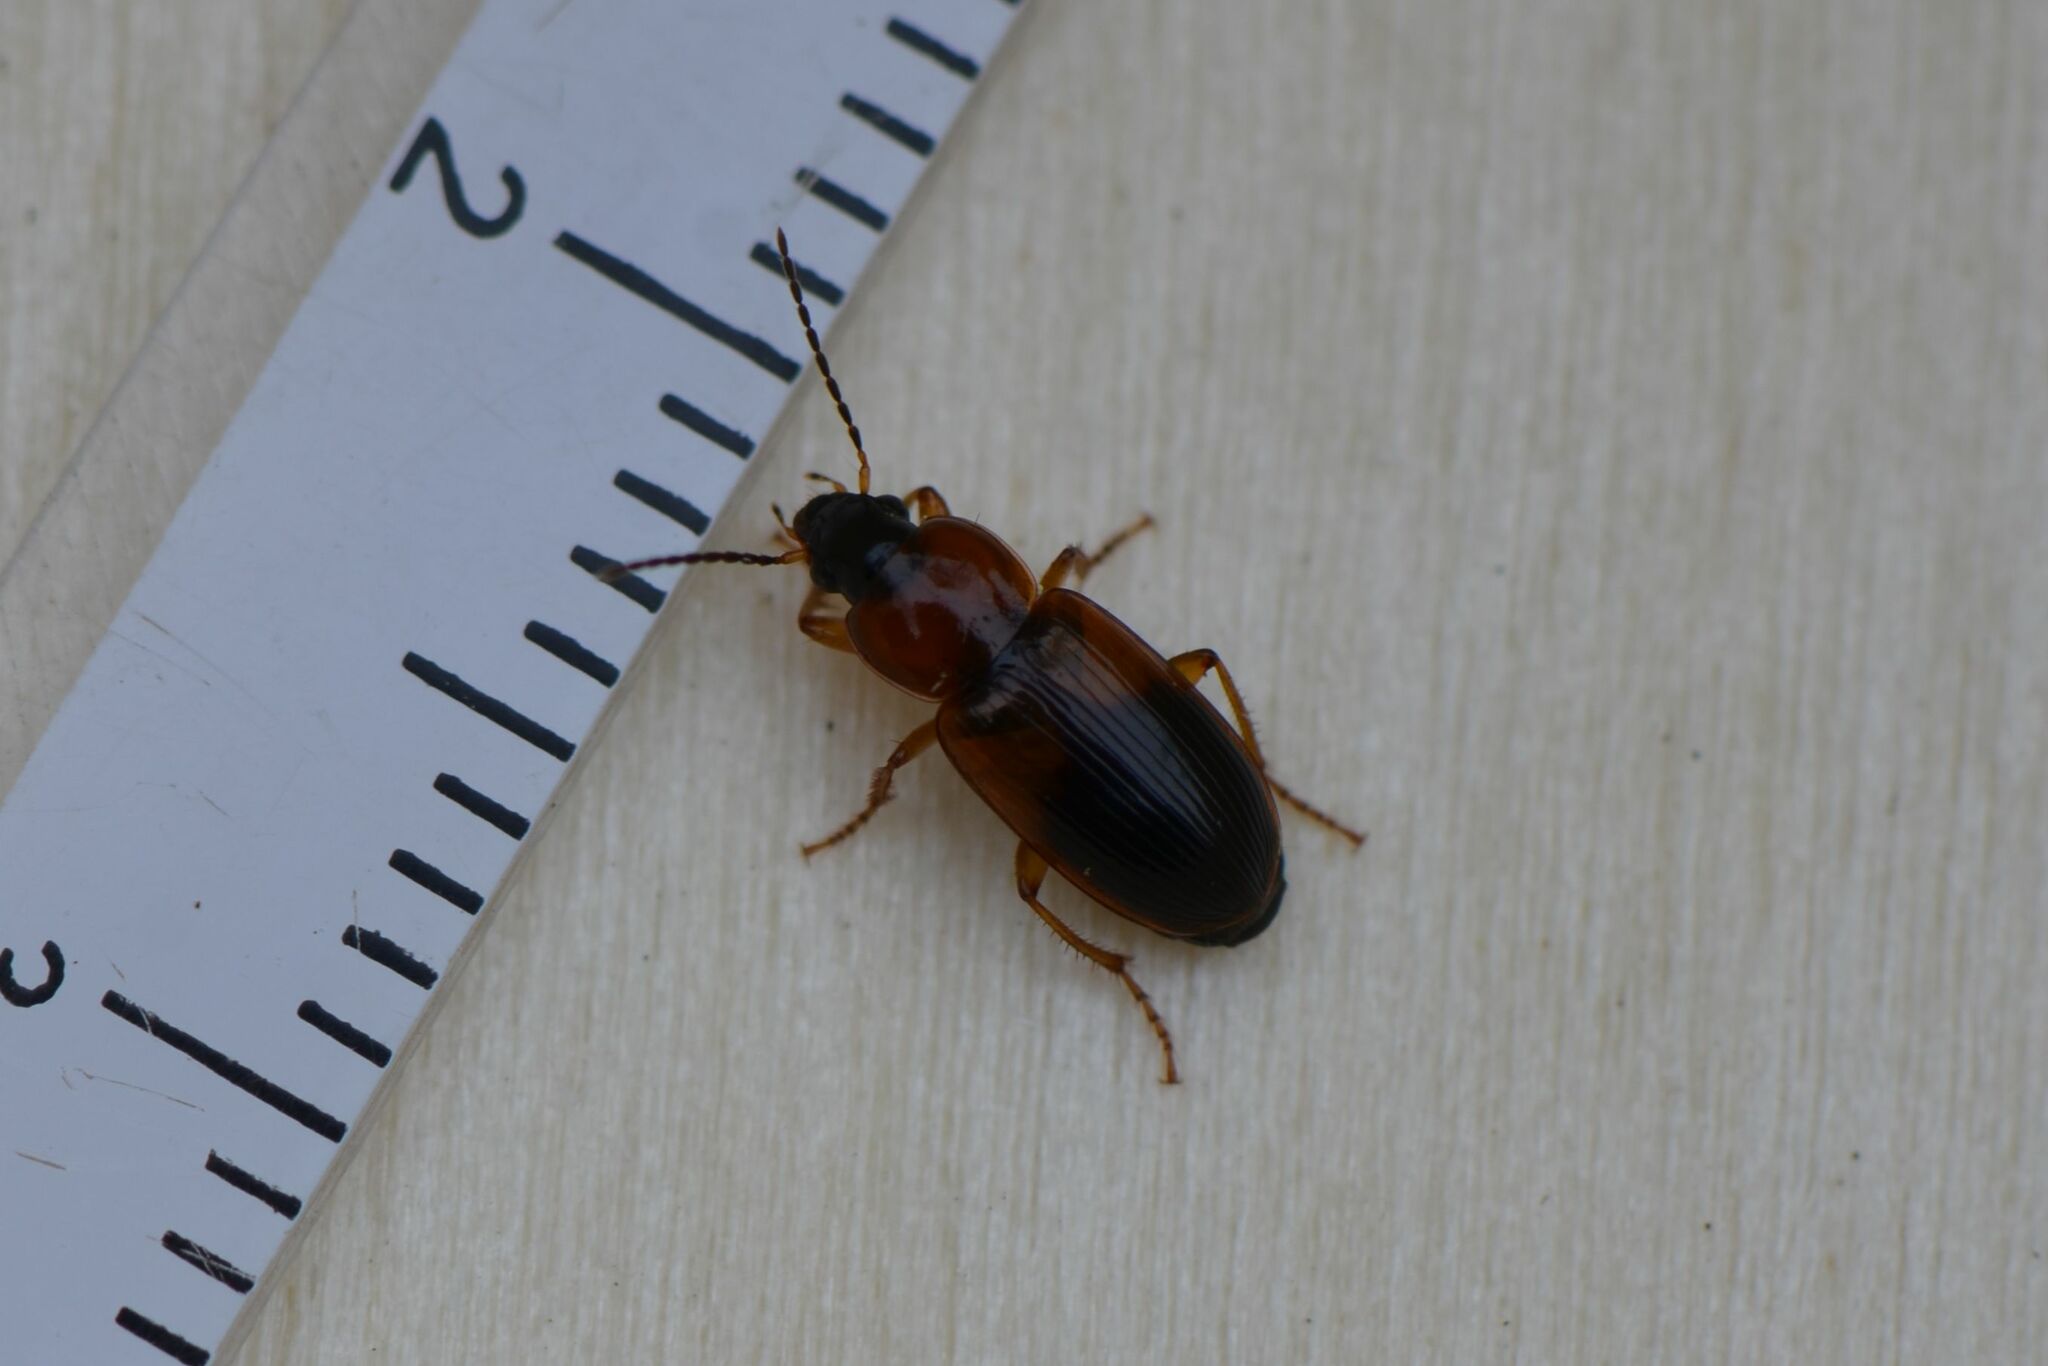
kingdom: Animalia
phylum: Arthropoda
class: Insecta
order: Coleoptera
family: Carabidae
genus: Stenolophus
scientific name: Stenolophus teutonus
